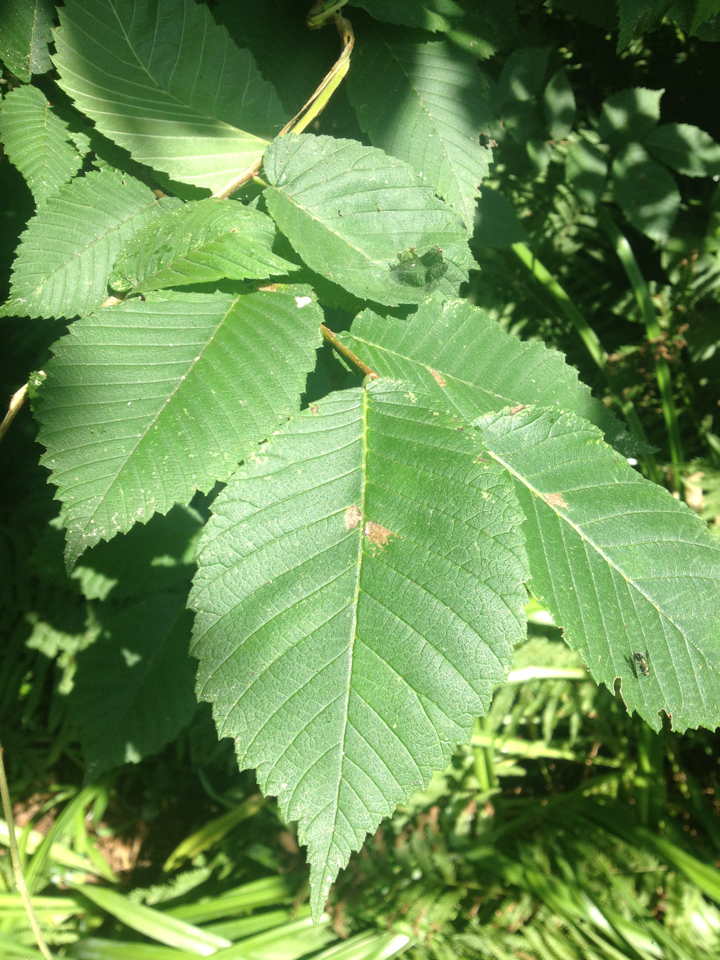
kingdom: Plantae
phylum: Tracheophyta
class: Magnoliopsida
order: Rosales
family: Ulmaceae
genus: Ulmus
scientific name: Ulmus americana
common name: American elm
